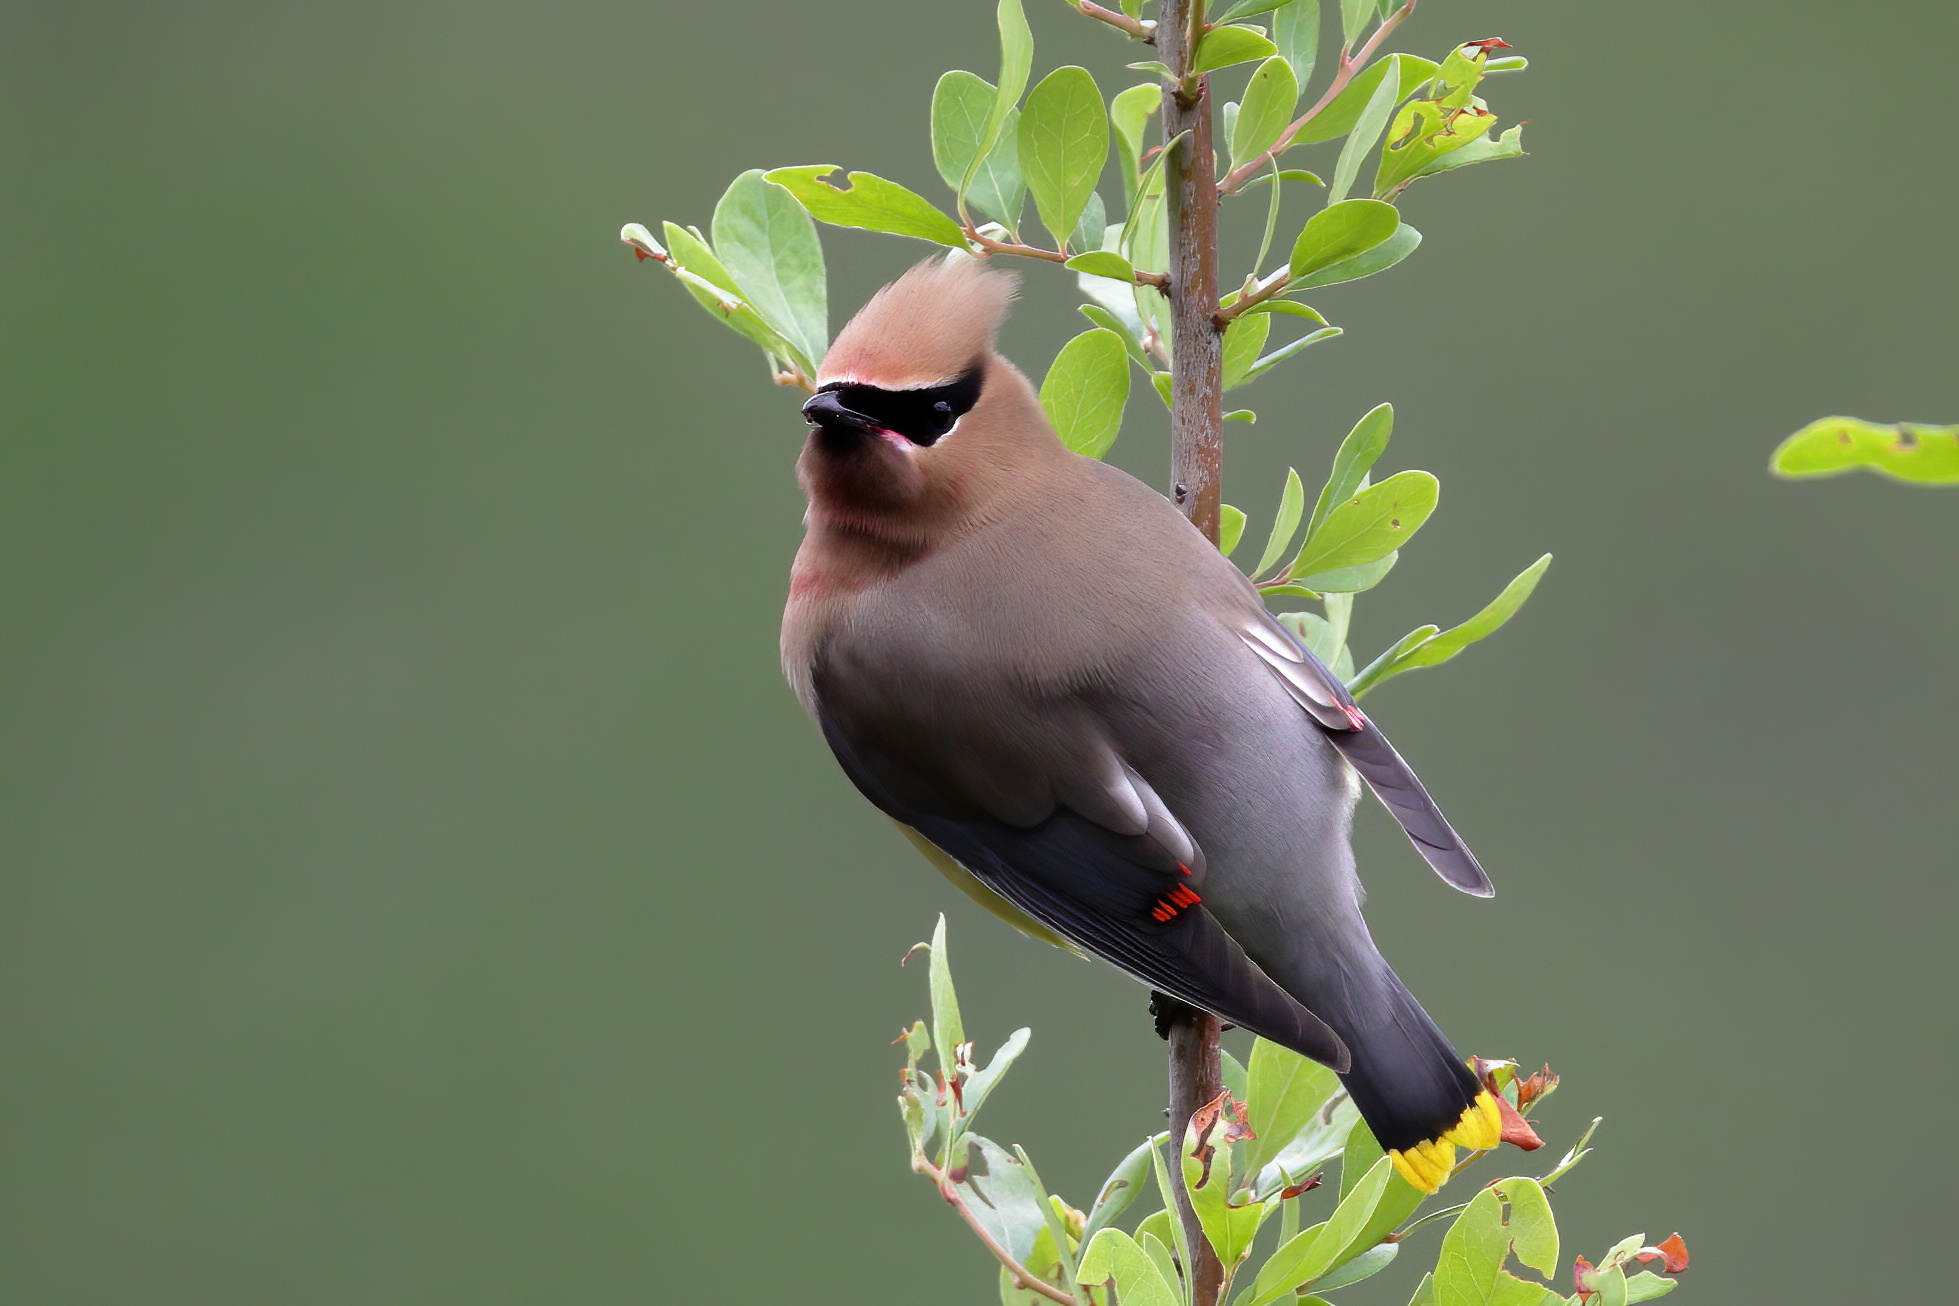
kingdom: Animalia
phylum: Chordata
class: Aves
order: Passeriformes
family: Mimidae
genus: Mimus
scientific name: Mimus polyglottos
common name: Northern mockingbird
